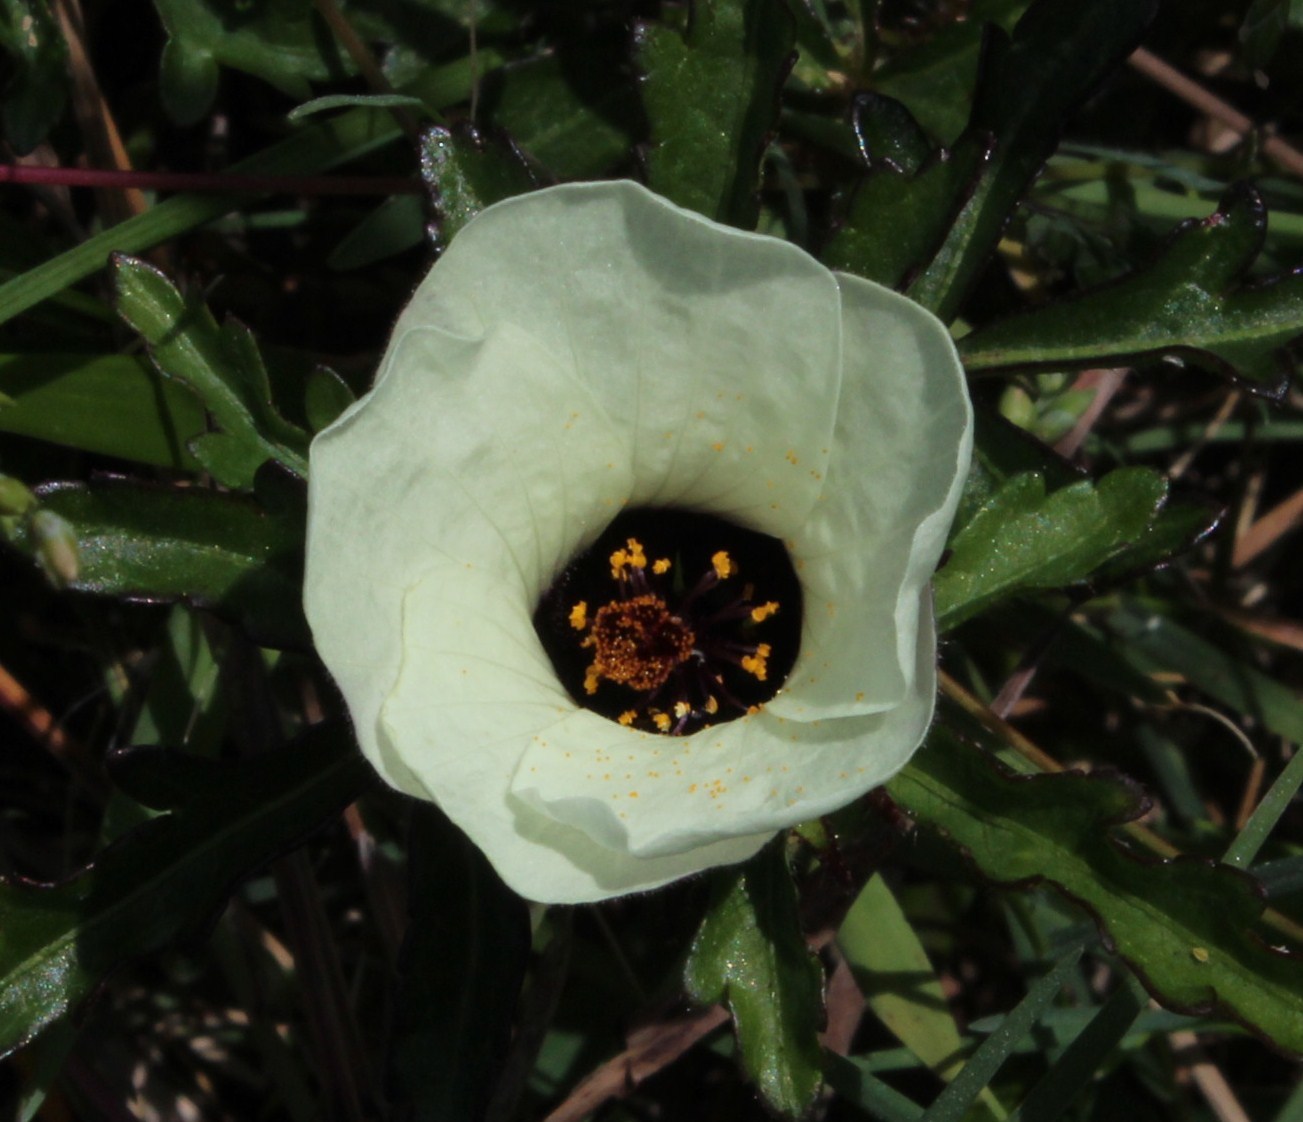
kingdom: Plantae
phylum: Tracheophyta
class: Magnoliopsida
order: Malvales
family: Malvaceae
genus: Hibiscus
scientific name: Hibiscus trionum
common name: Bladder ketmia
